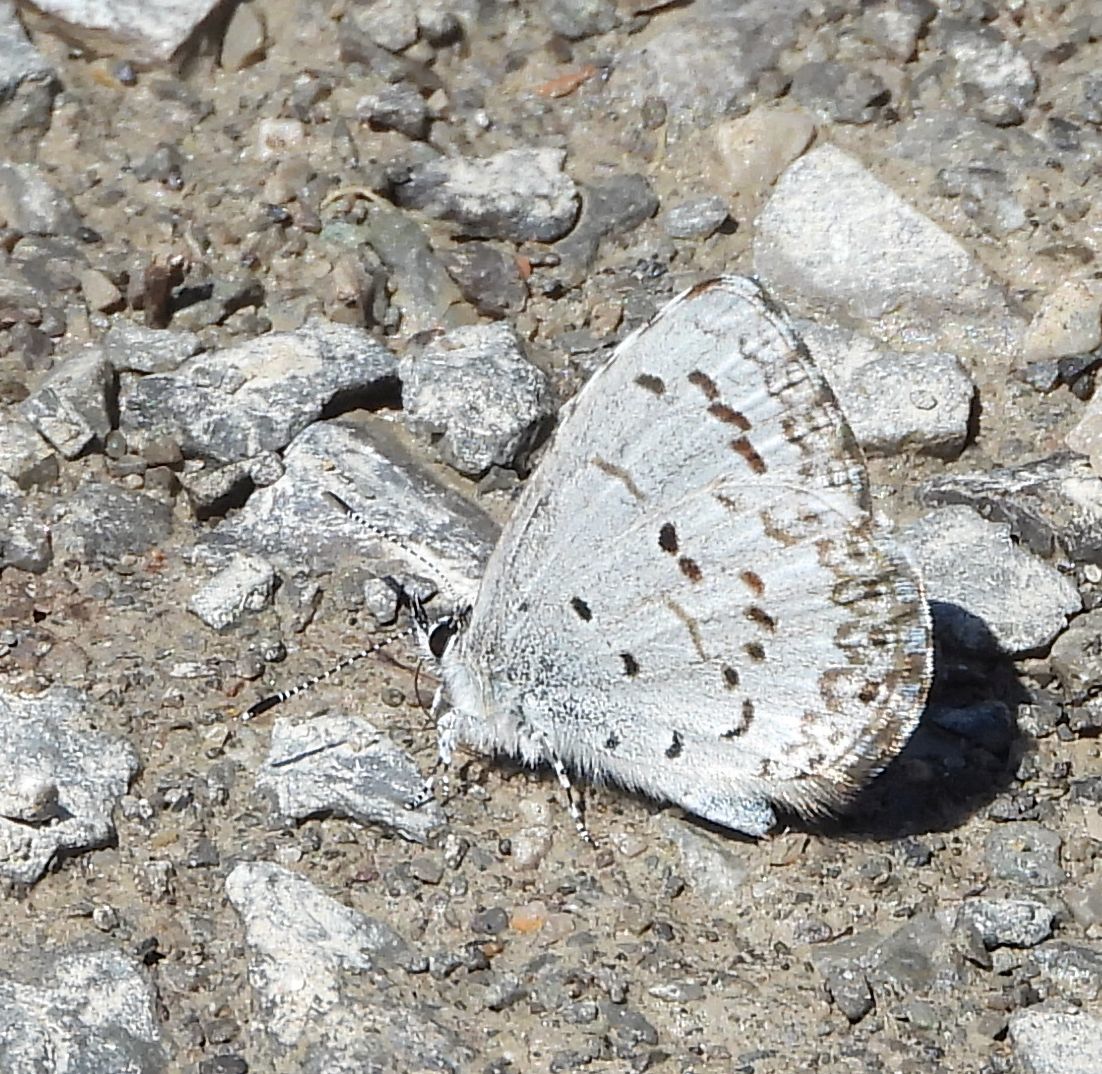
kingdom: Animalia
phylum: Arthropoda
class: Insecta
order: Lepidoptera
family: Lycaenidae
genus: Celastrina
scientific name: Celastrina lucia
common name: Lucia azure
